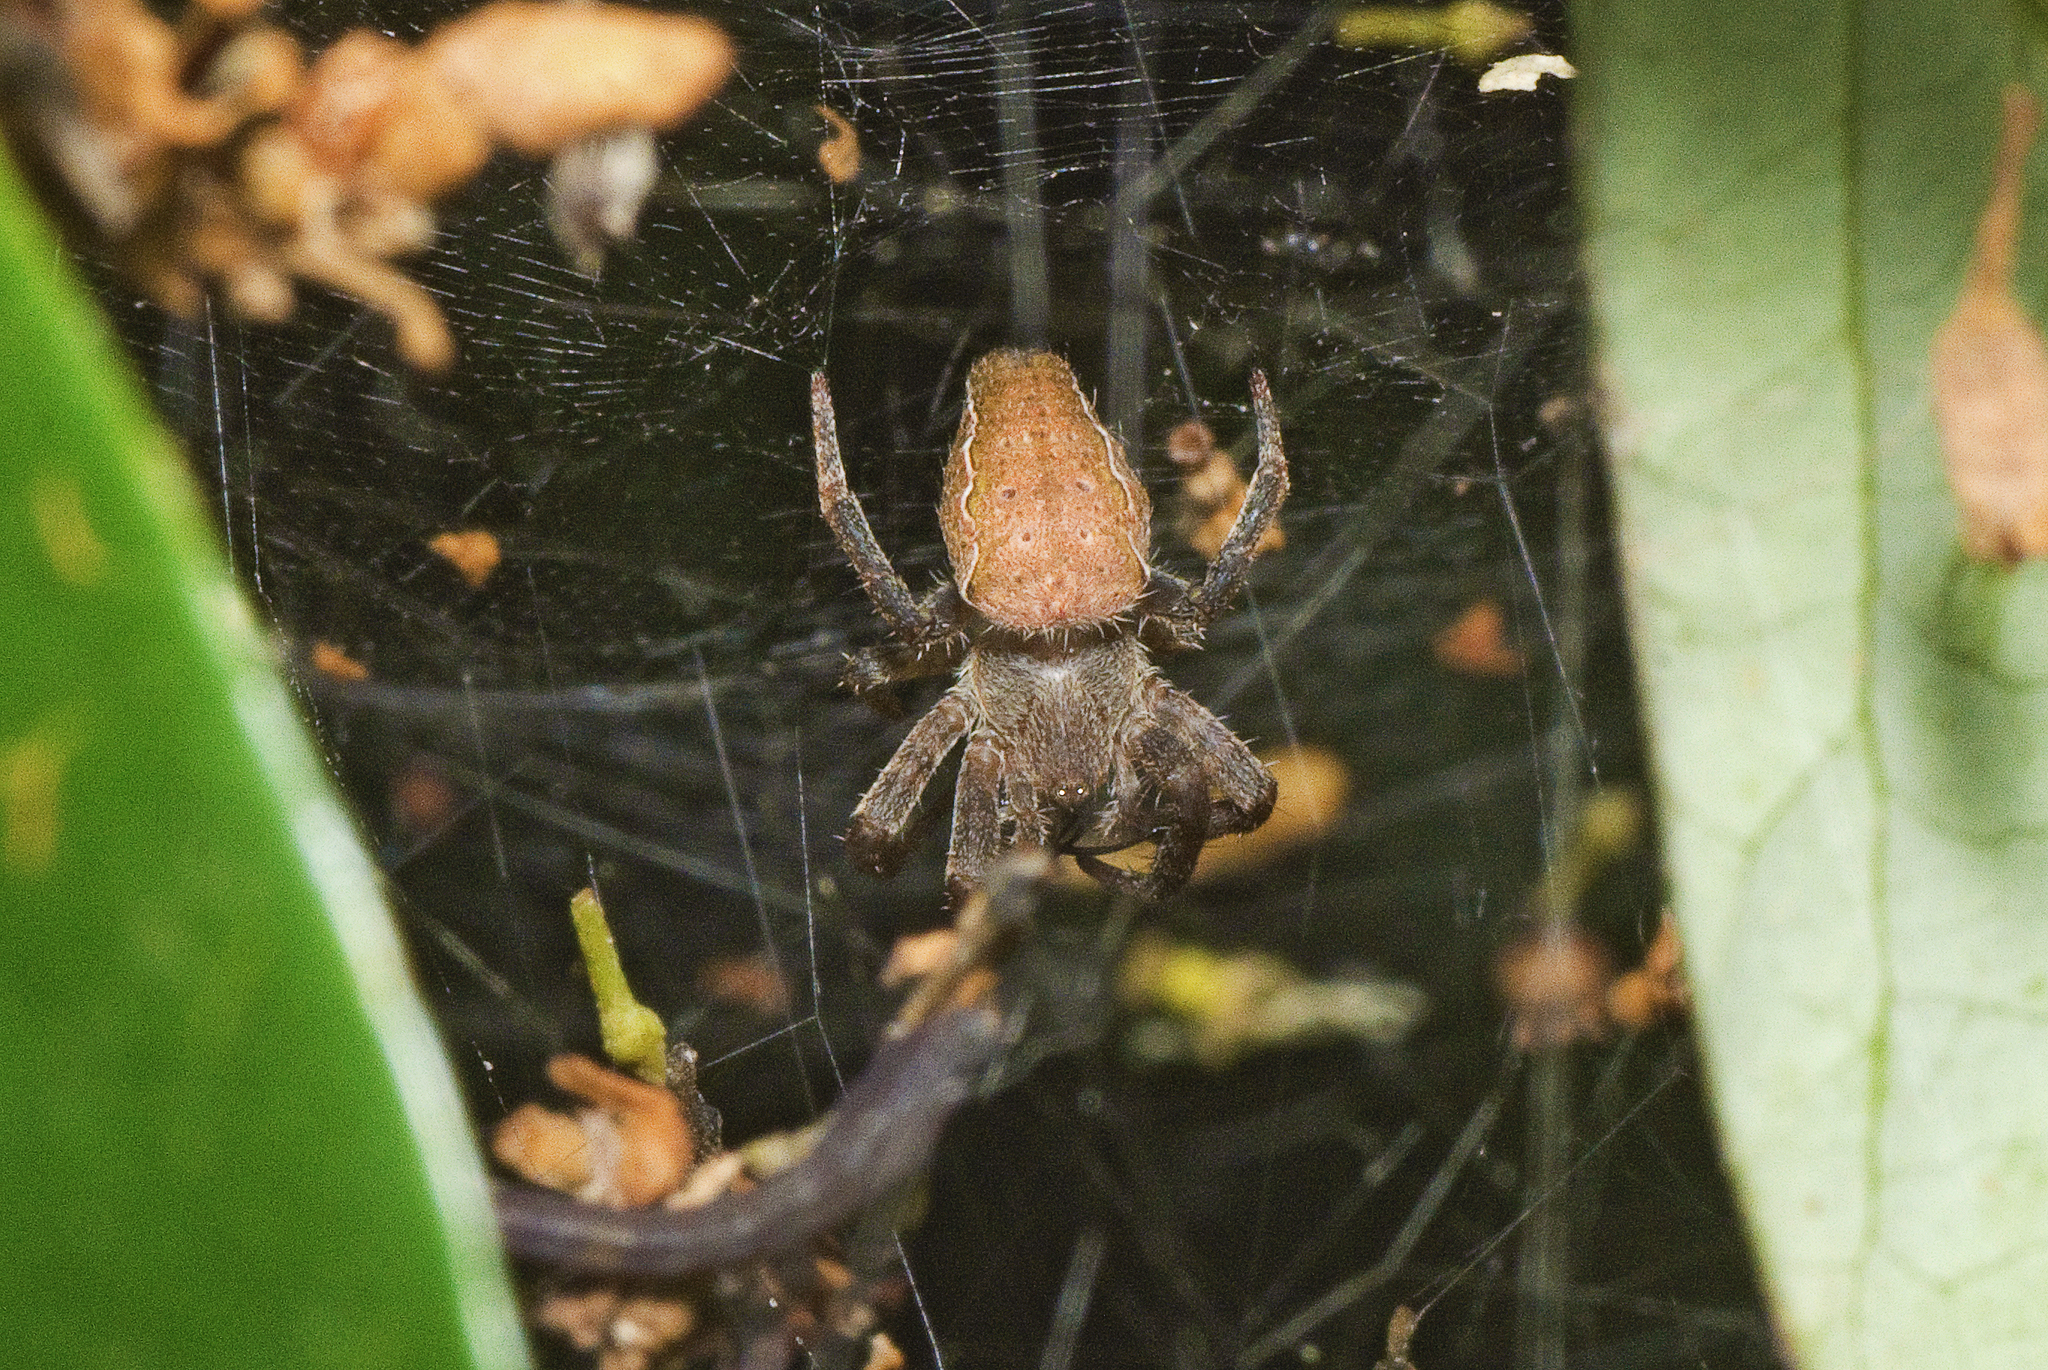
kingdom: Animalia
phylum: Arthropoda
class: Arachnida
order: Araneae
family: Araneidae
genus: Cyrtophora
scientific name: Cyrtophora exanthematica
